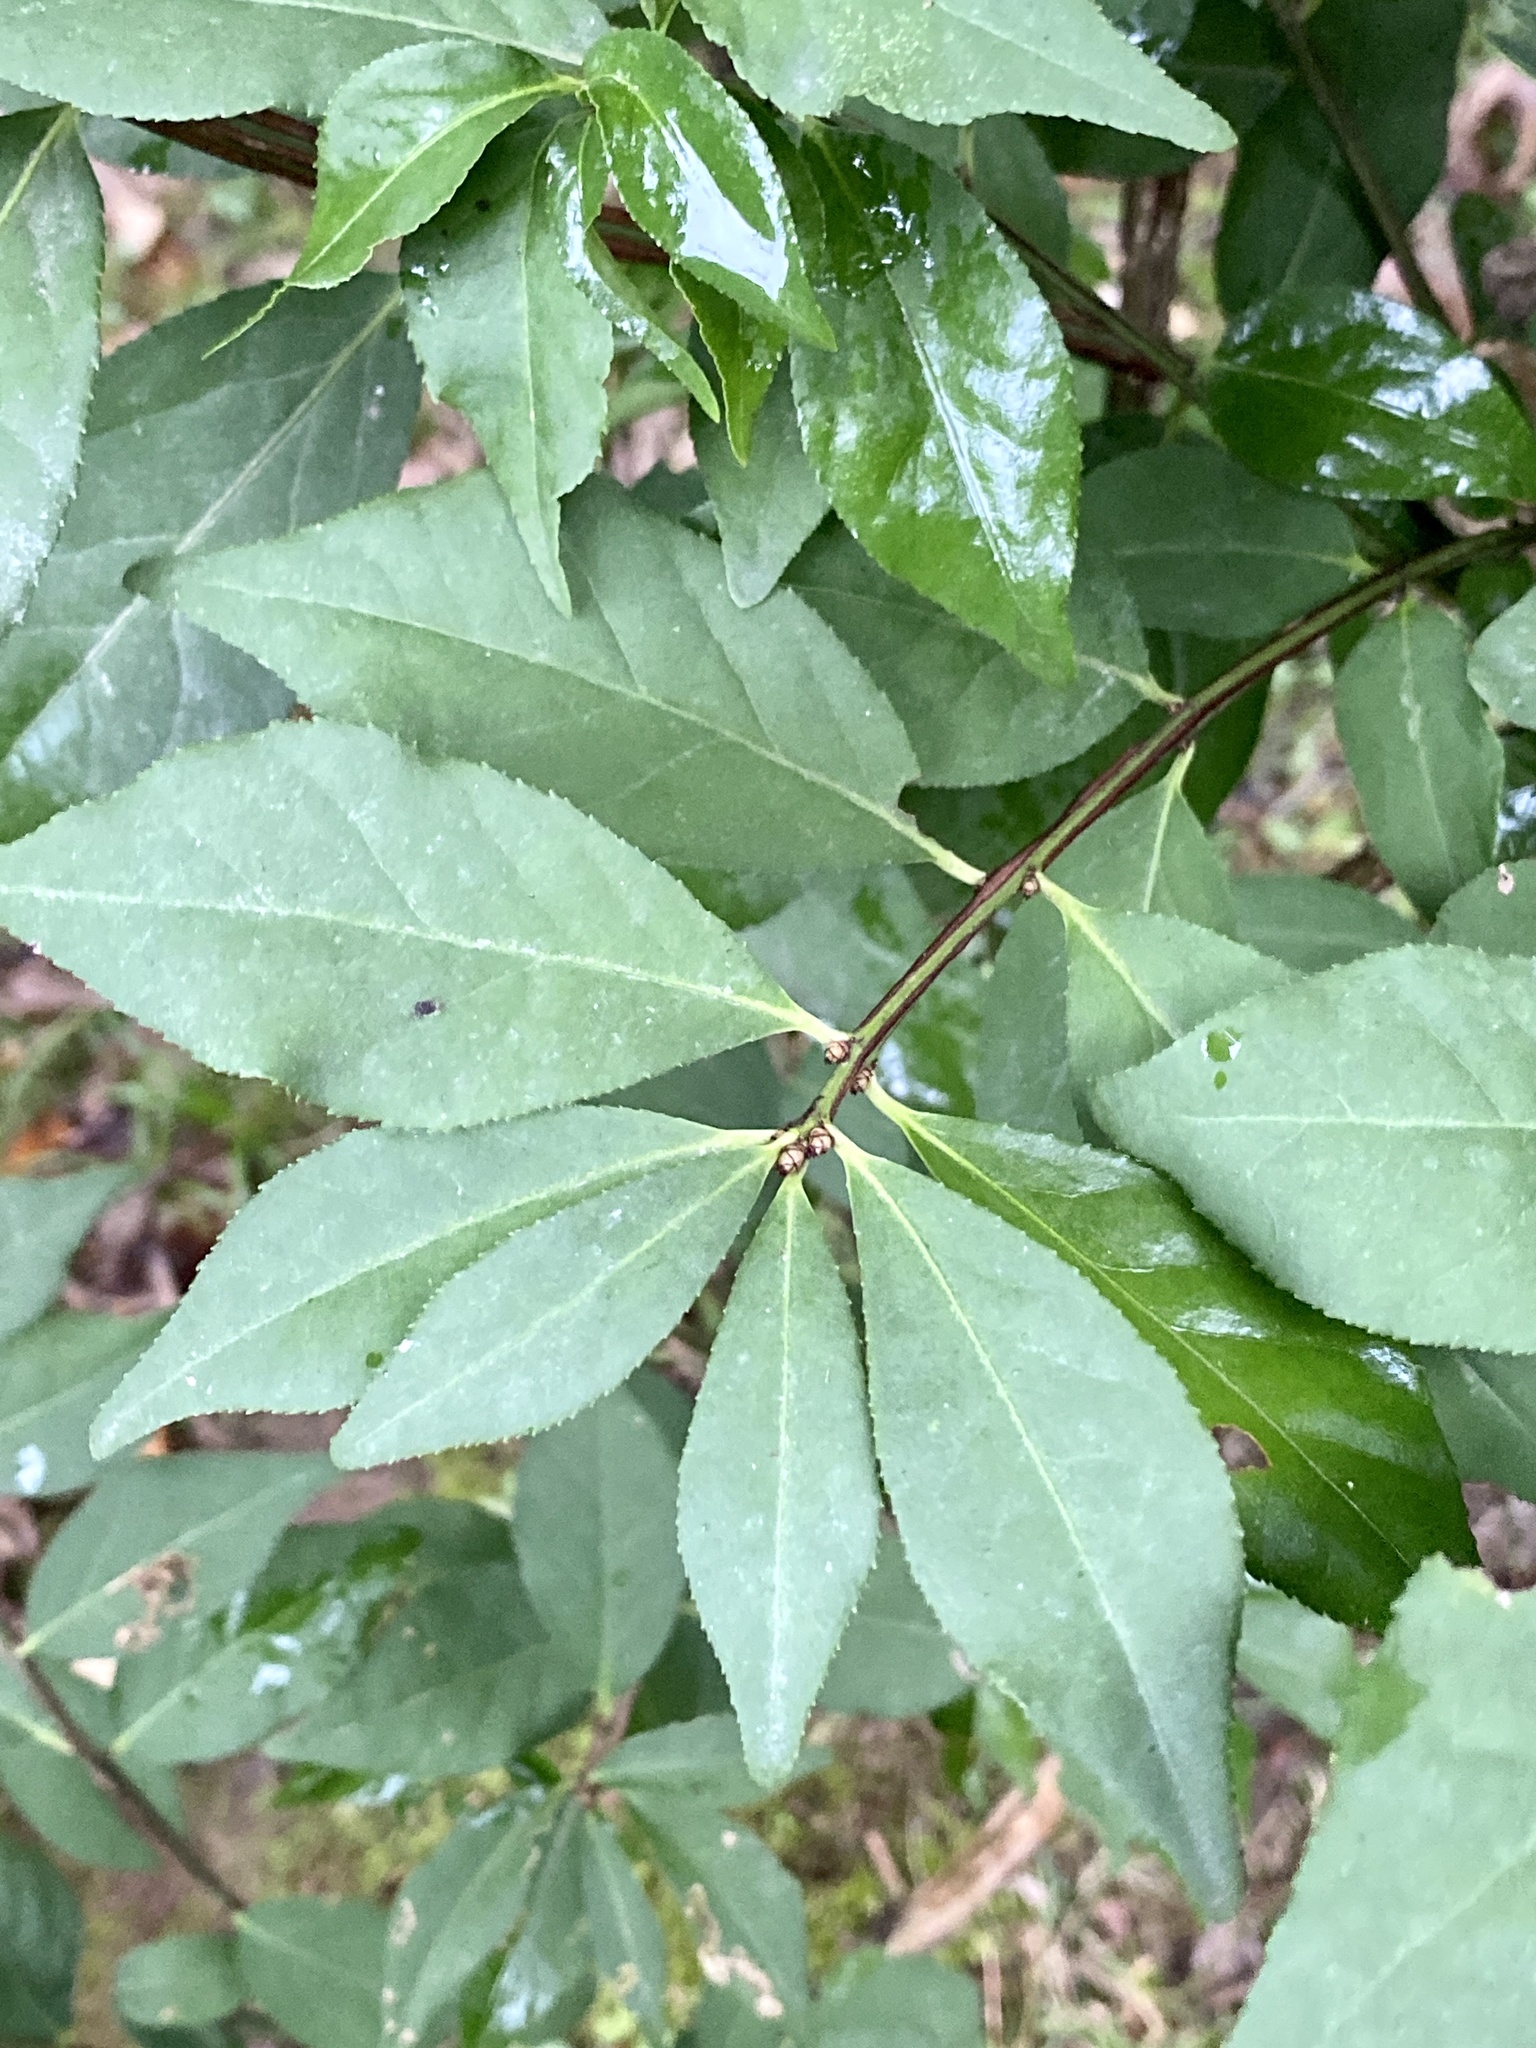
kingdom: Plantae
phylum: Tracheophyta
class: Magnoliopsida
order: Celastrales
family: Celastraceae
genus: Euonymus
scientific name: Euonymus alatus
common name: Winged euonymus
